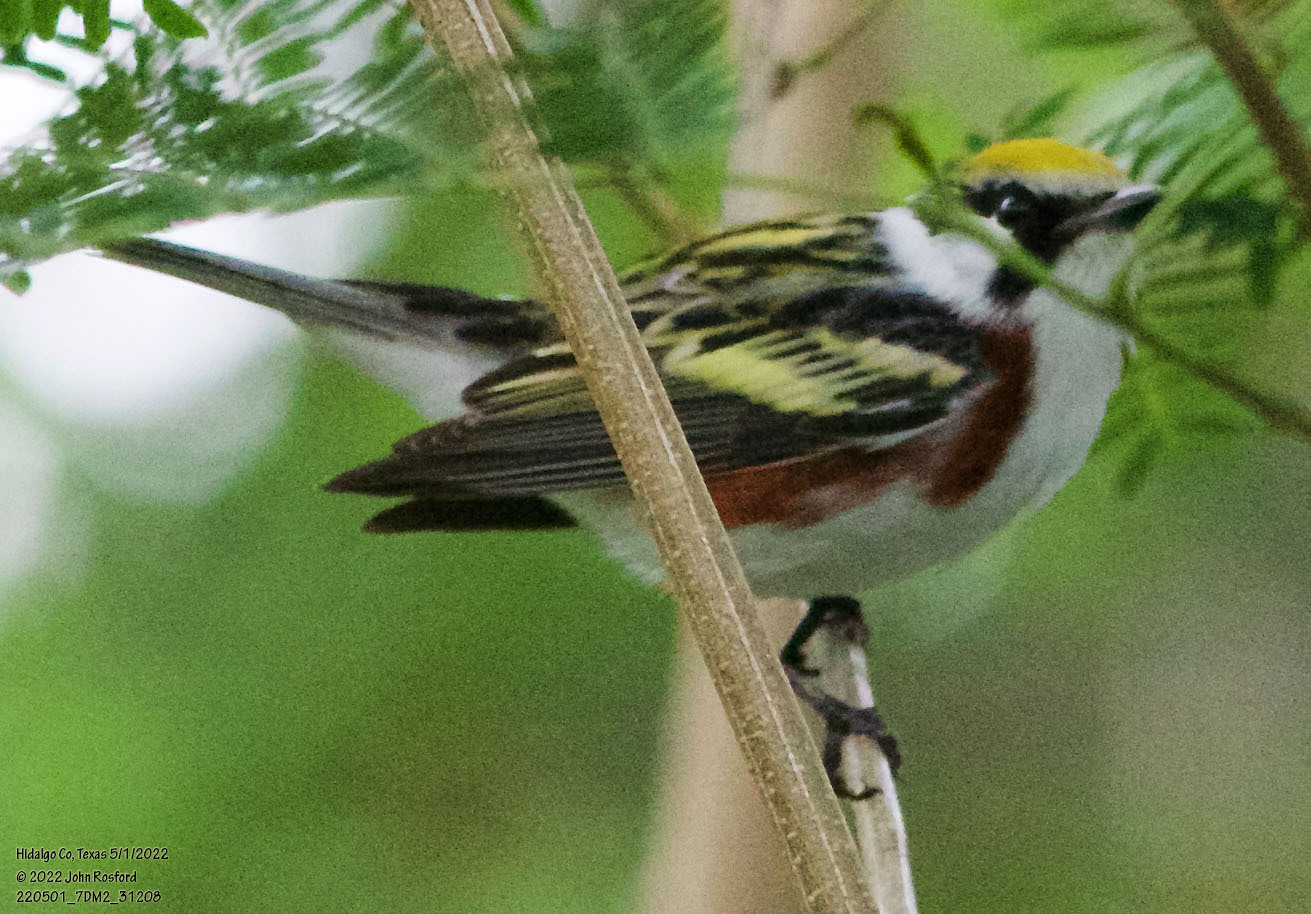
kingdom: Animalia
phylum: Chordata
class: Aves
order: Passeriformes
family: Parulidae
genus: Setophaga
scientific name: Setophaga pensylvanica
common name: Chestnut-sided warbler
